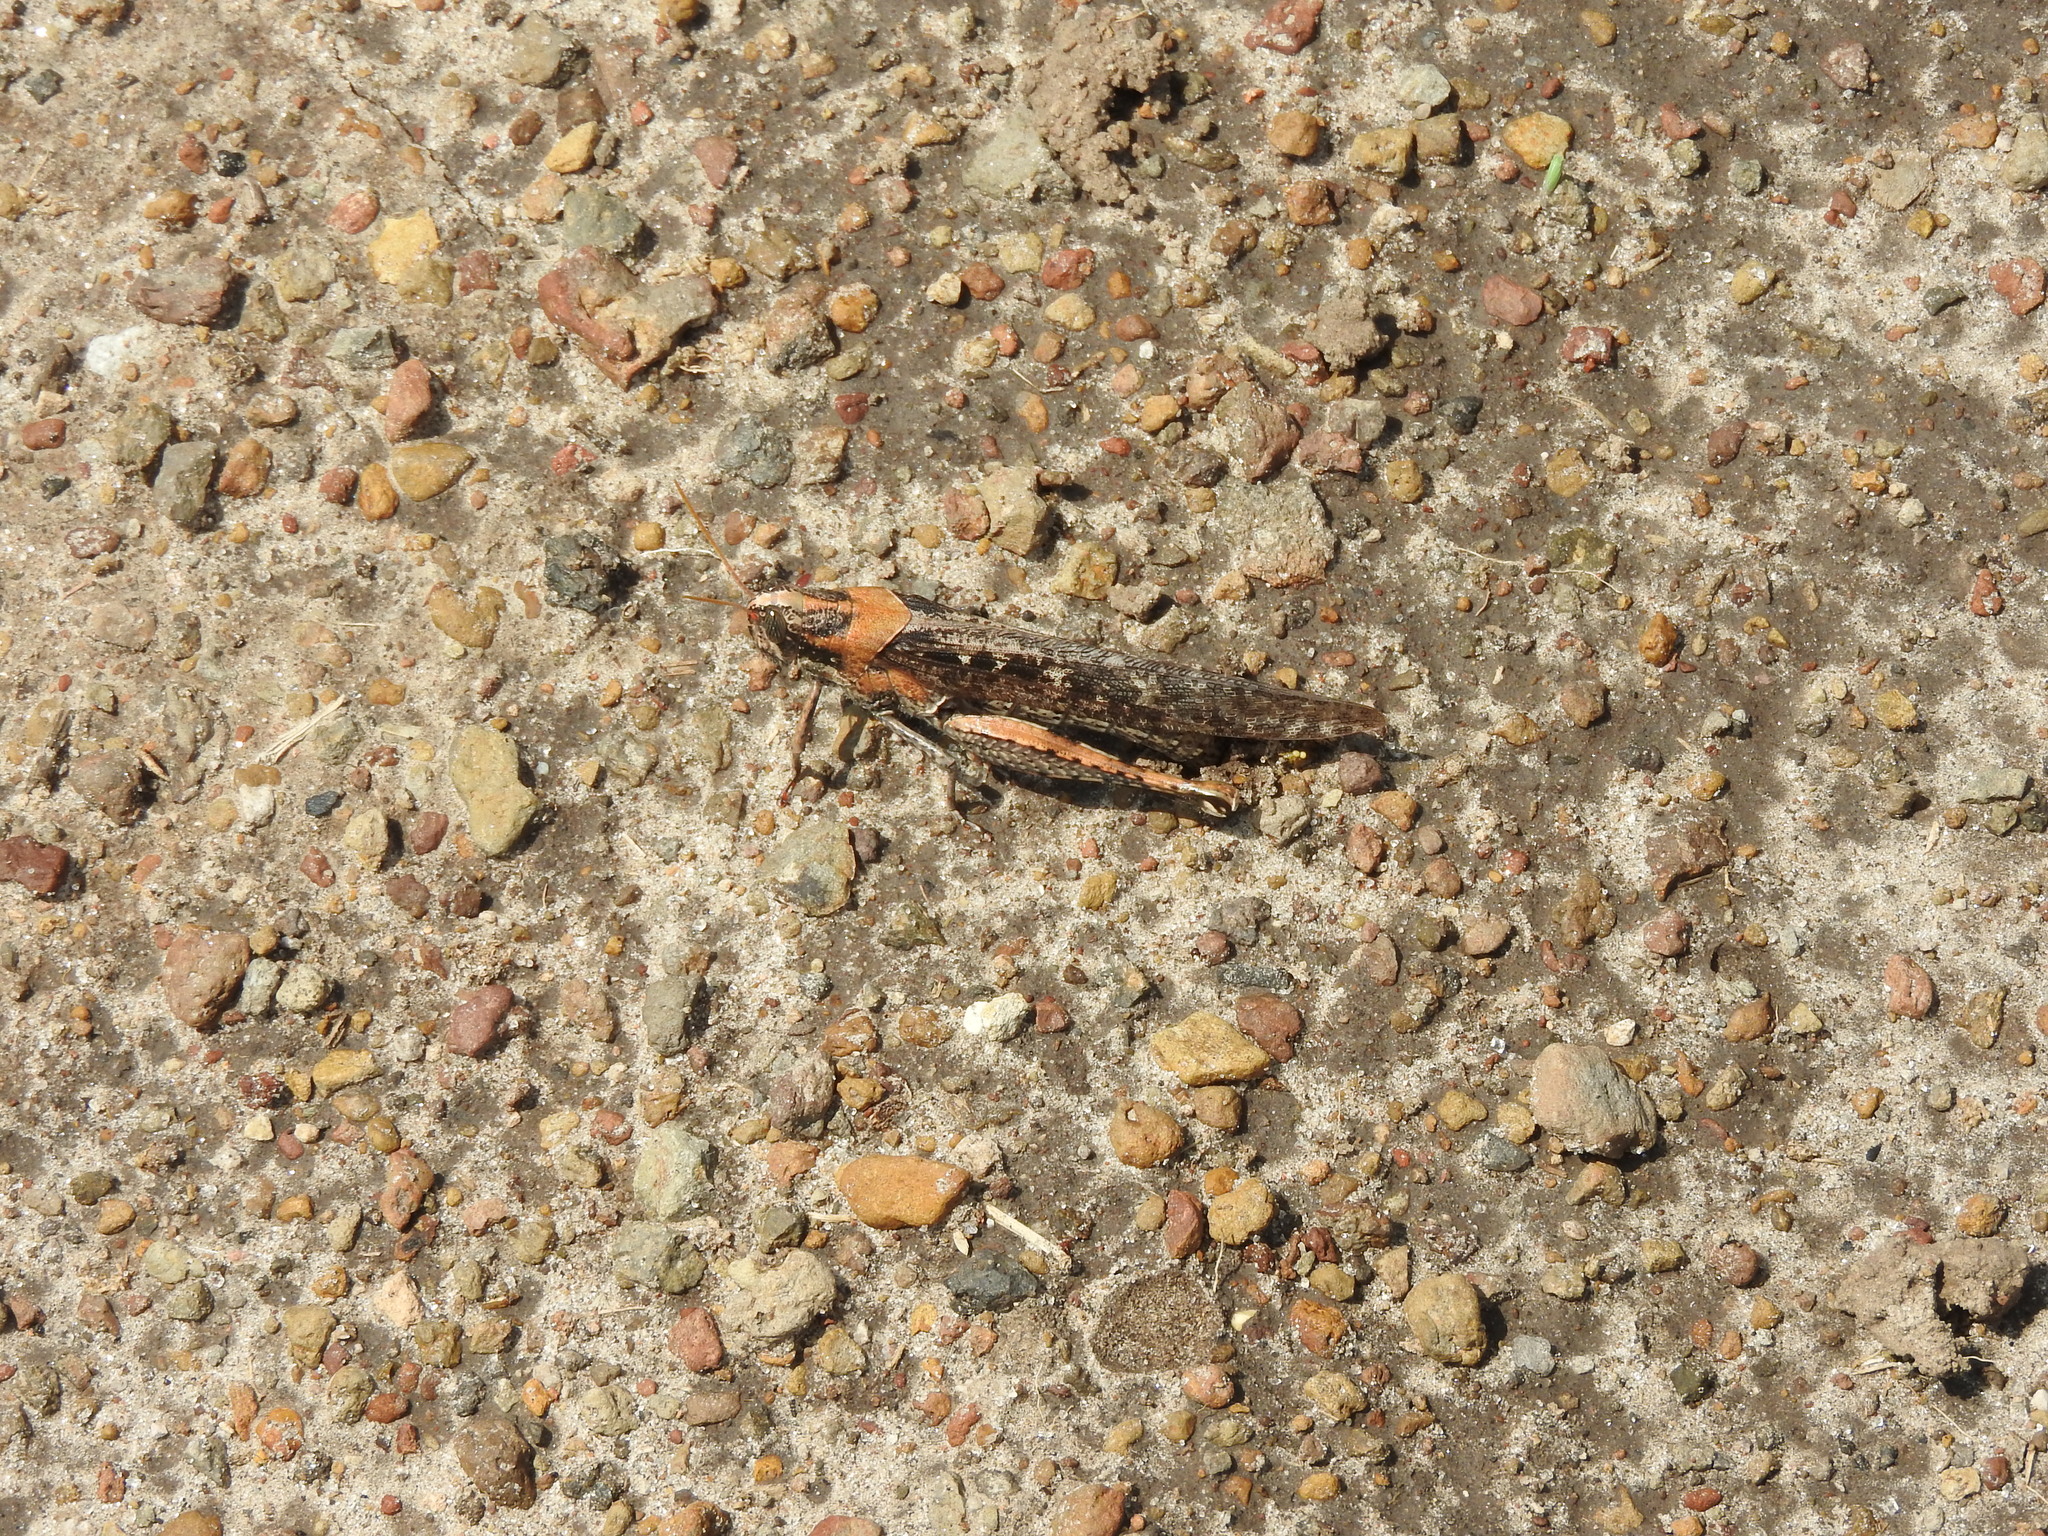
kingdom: Animalia
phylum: Arthropoda
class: Insecta
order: Orthoptera
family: Acrididae
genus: Schistocerca
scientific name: Schistocerca nitens
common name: Vagrant grasshopper
